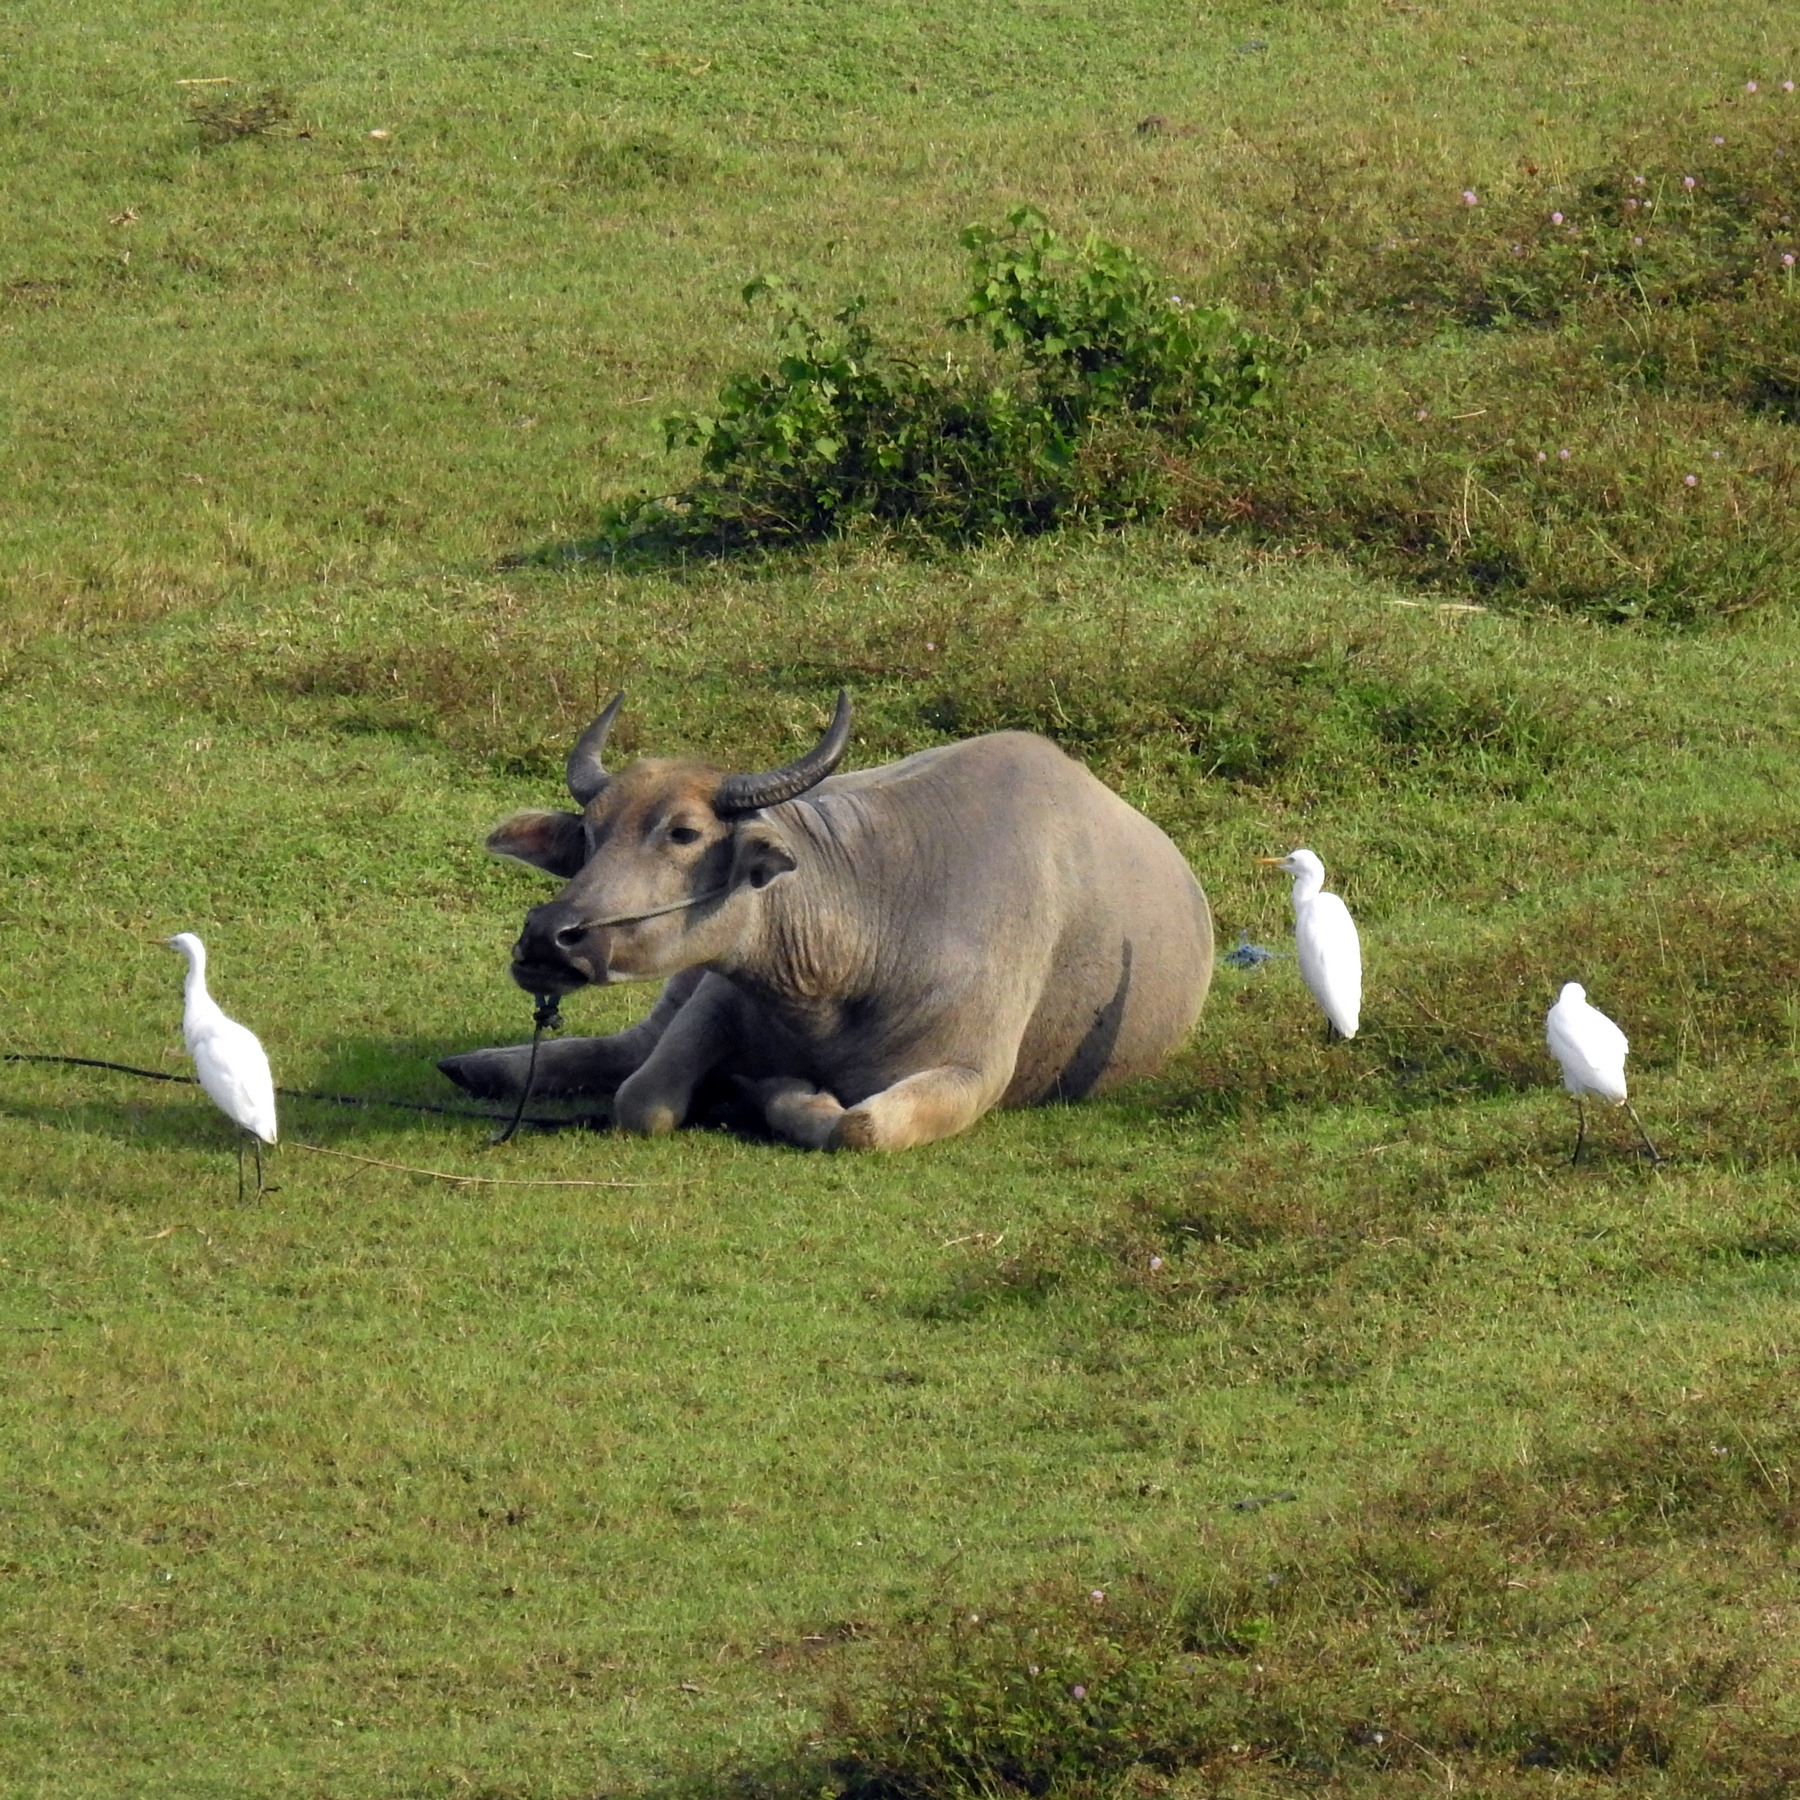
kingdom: Animalia
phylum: Chordata
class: Aves
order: Pelecaniformes
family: Ardeidae
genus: Bubulcus
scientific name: Bubulcus coromandus
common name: Eastern cattle egret
